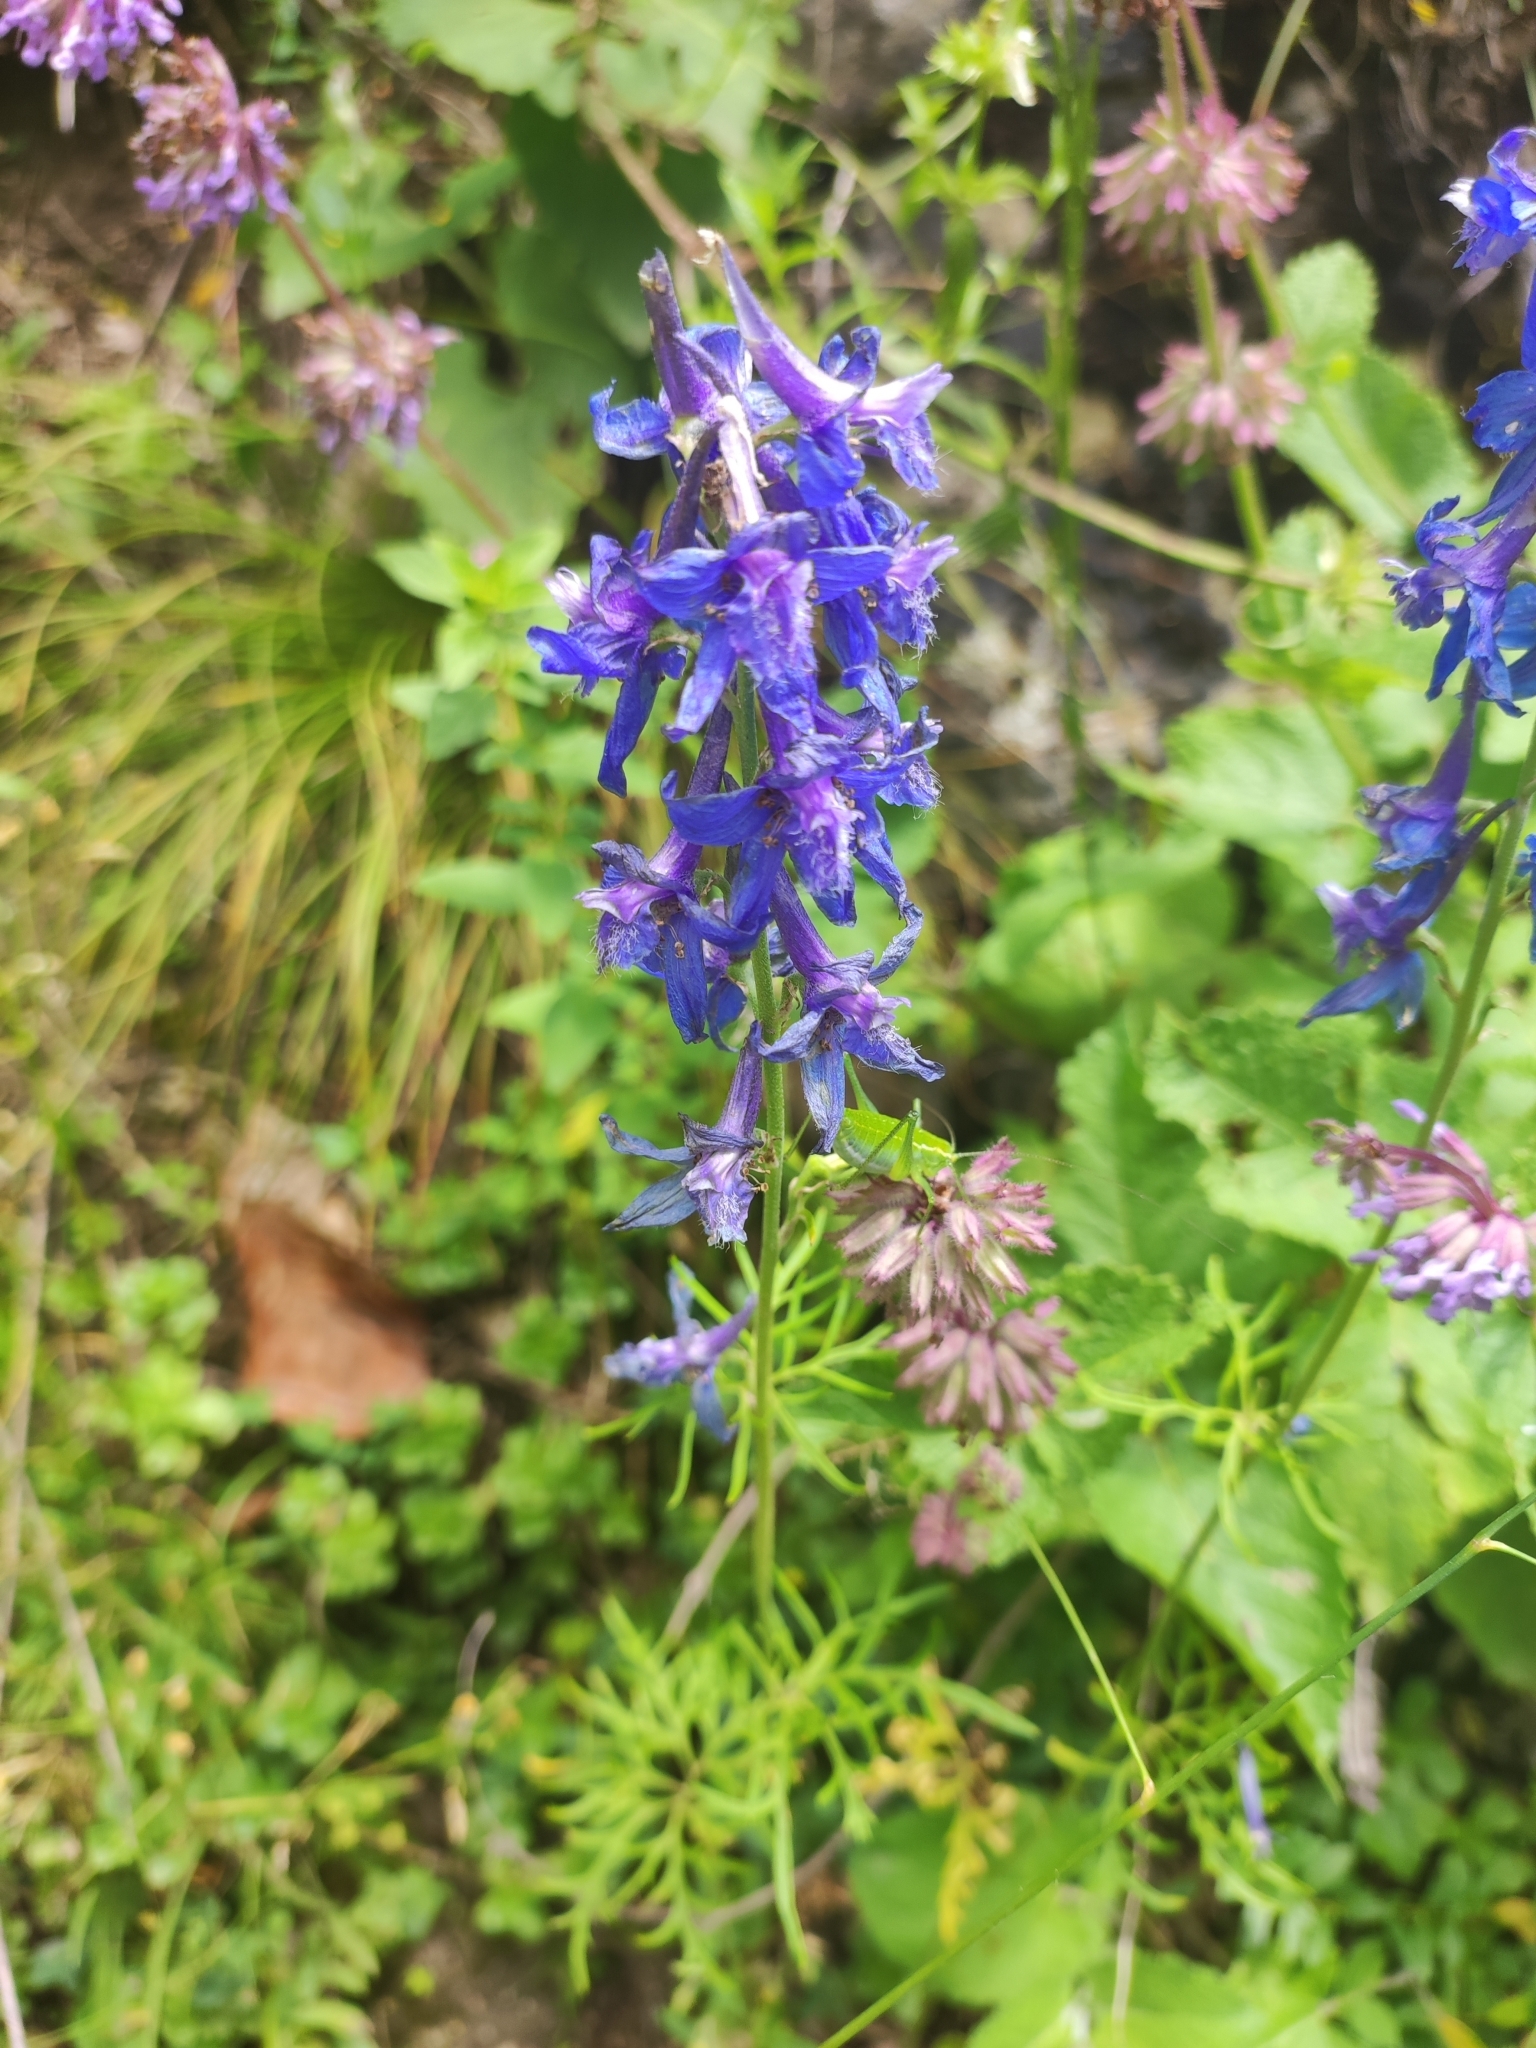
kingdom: Plantae
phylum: Tracheophyta
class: Magnoliopsida
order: Lamiales
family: Lamiaceae
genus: Salvia
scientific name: Salvia verticillata
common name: Whorled clary
